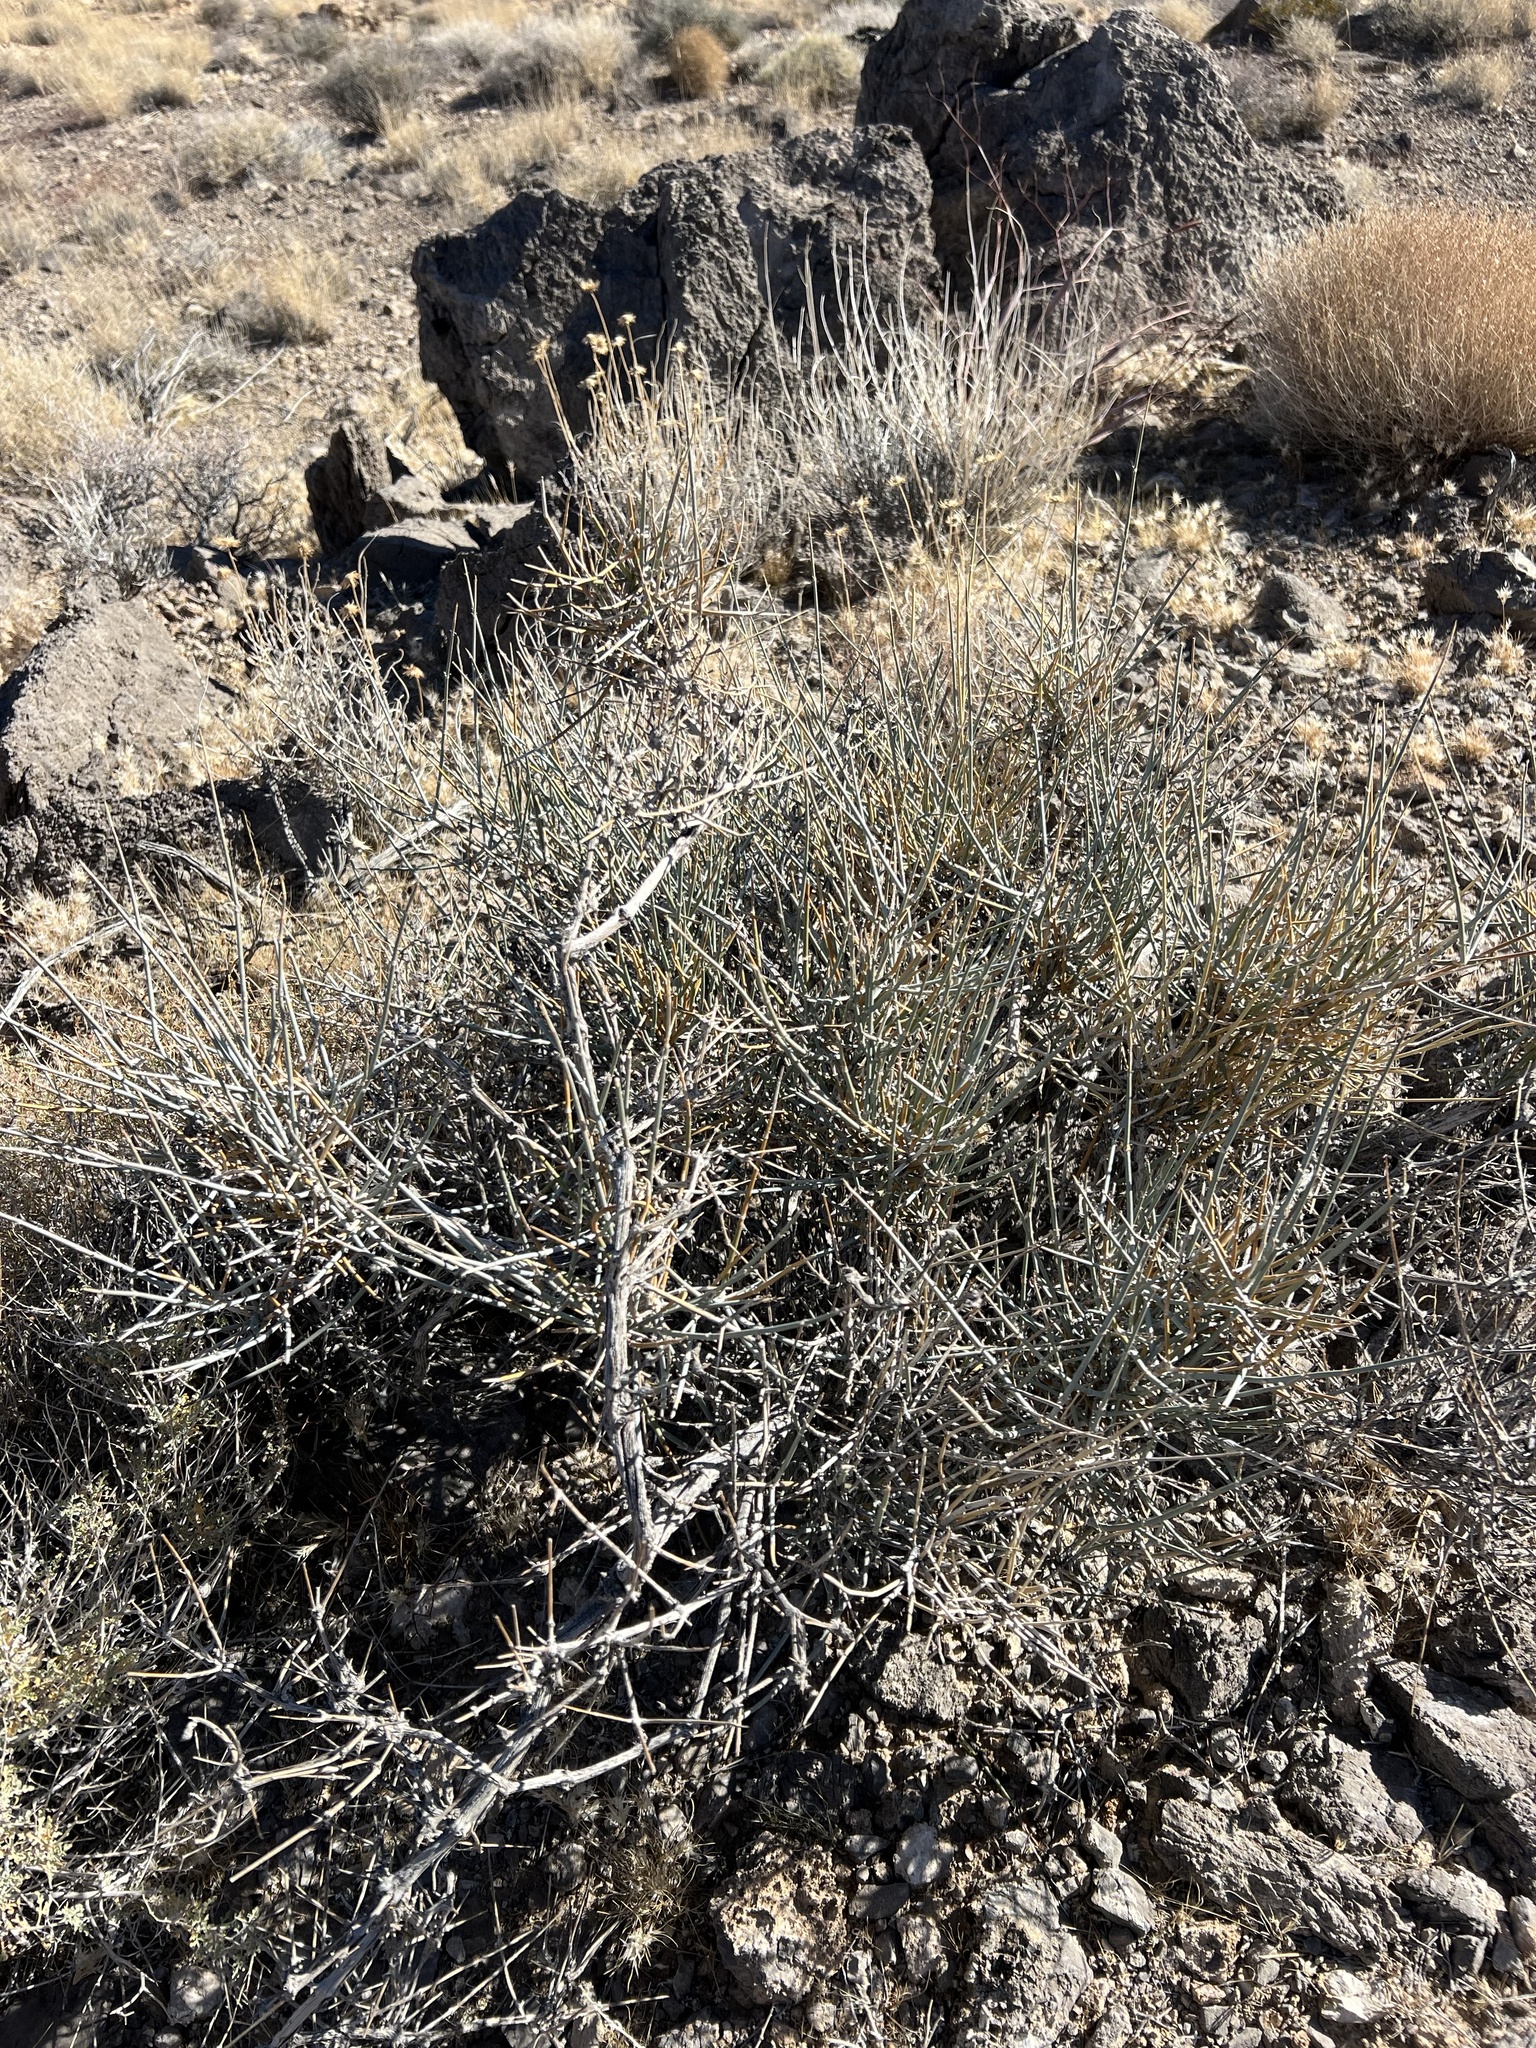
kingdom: Plantae
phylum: Tracheophyta
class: Gnetopsida
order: Ephedrales
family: Ephedraceae
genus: Ephedra
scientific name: Ephedra nevadensis
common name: Gray ephedra
